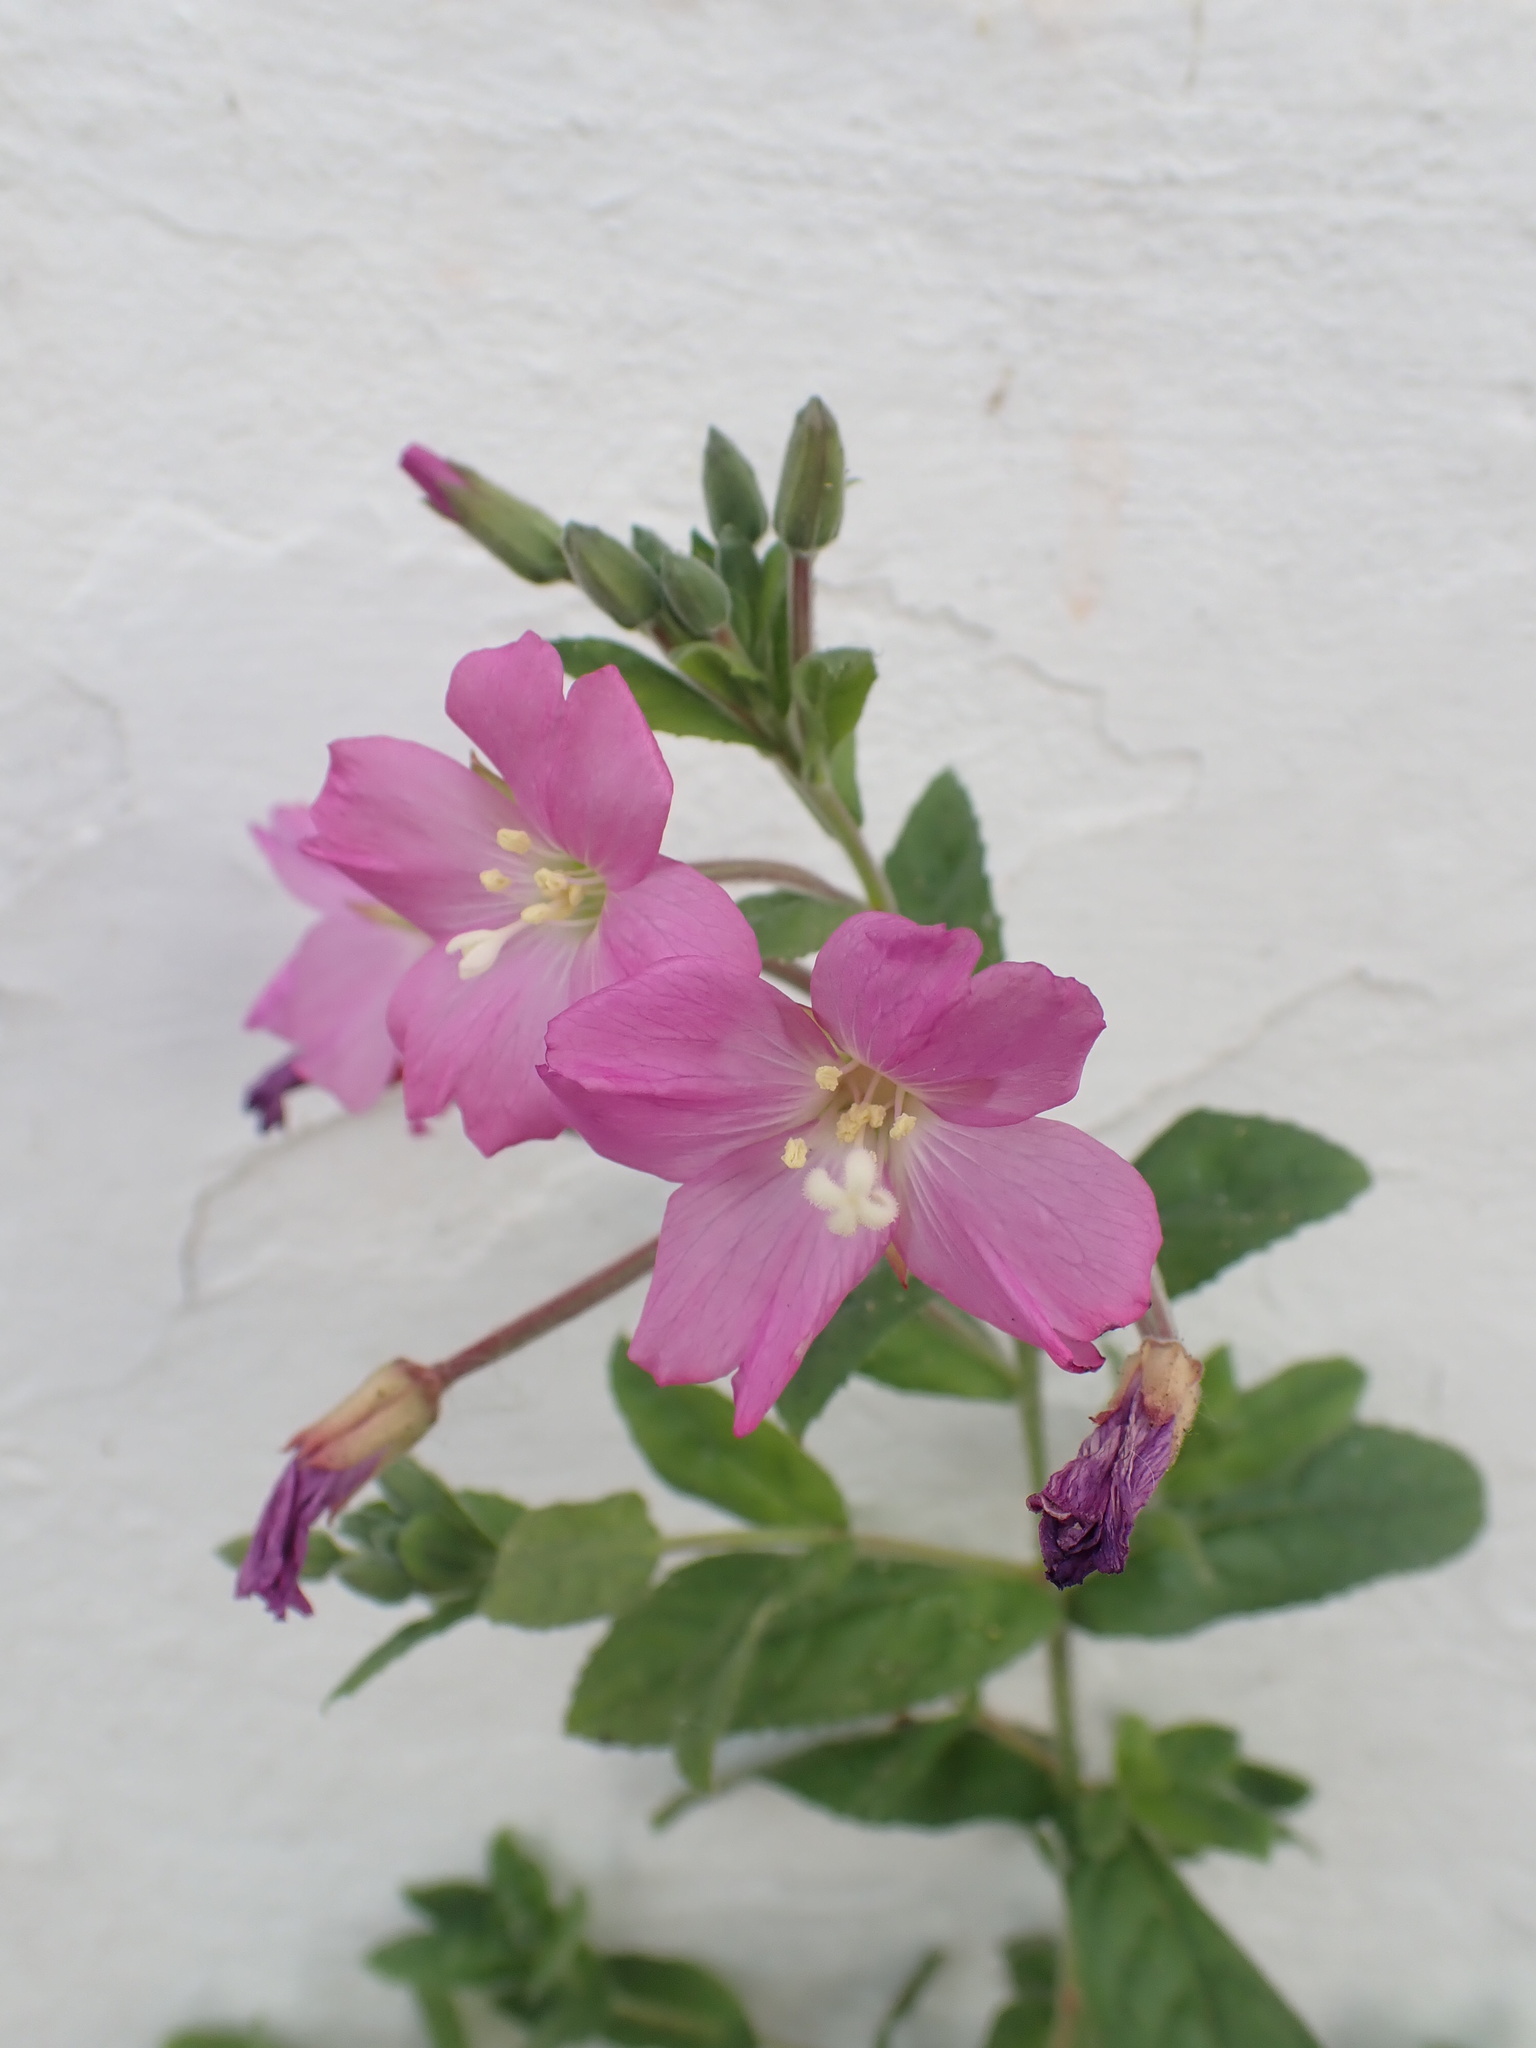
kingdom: Plantae
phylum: Tracheophyta
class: Magnoliopsida
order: Myrtales
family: Onagraceae
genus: Epilobium
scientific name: Epilobium hirsutum
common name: Great willowherb
